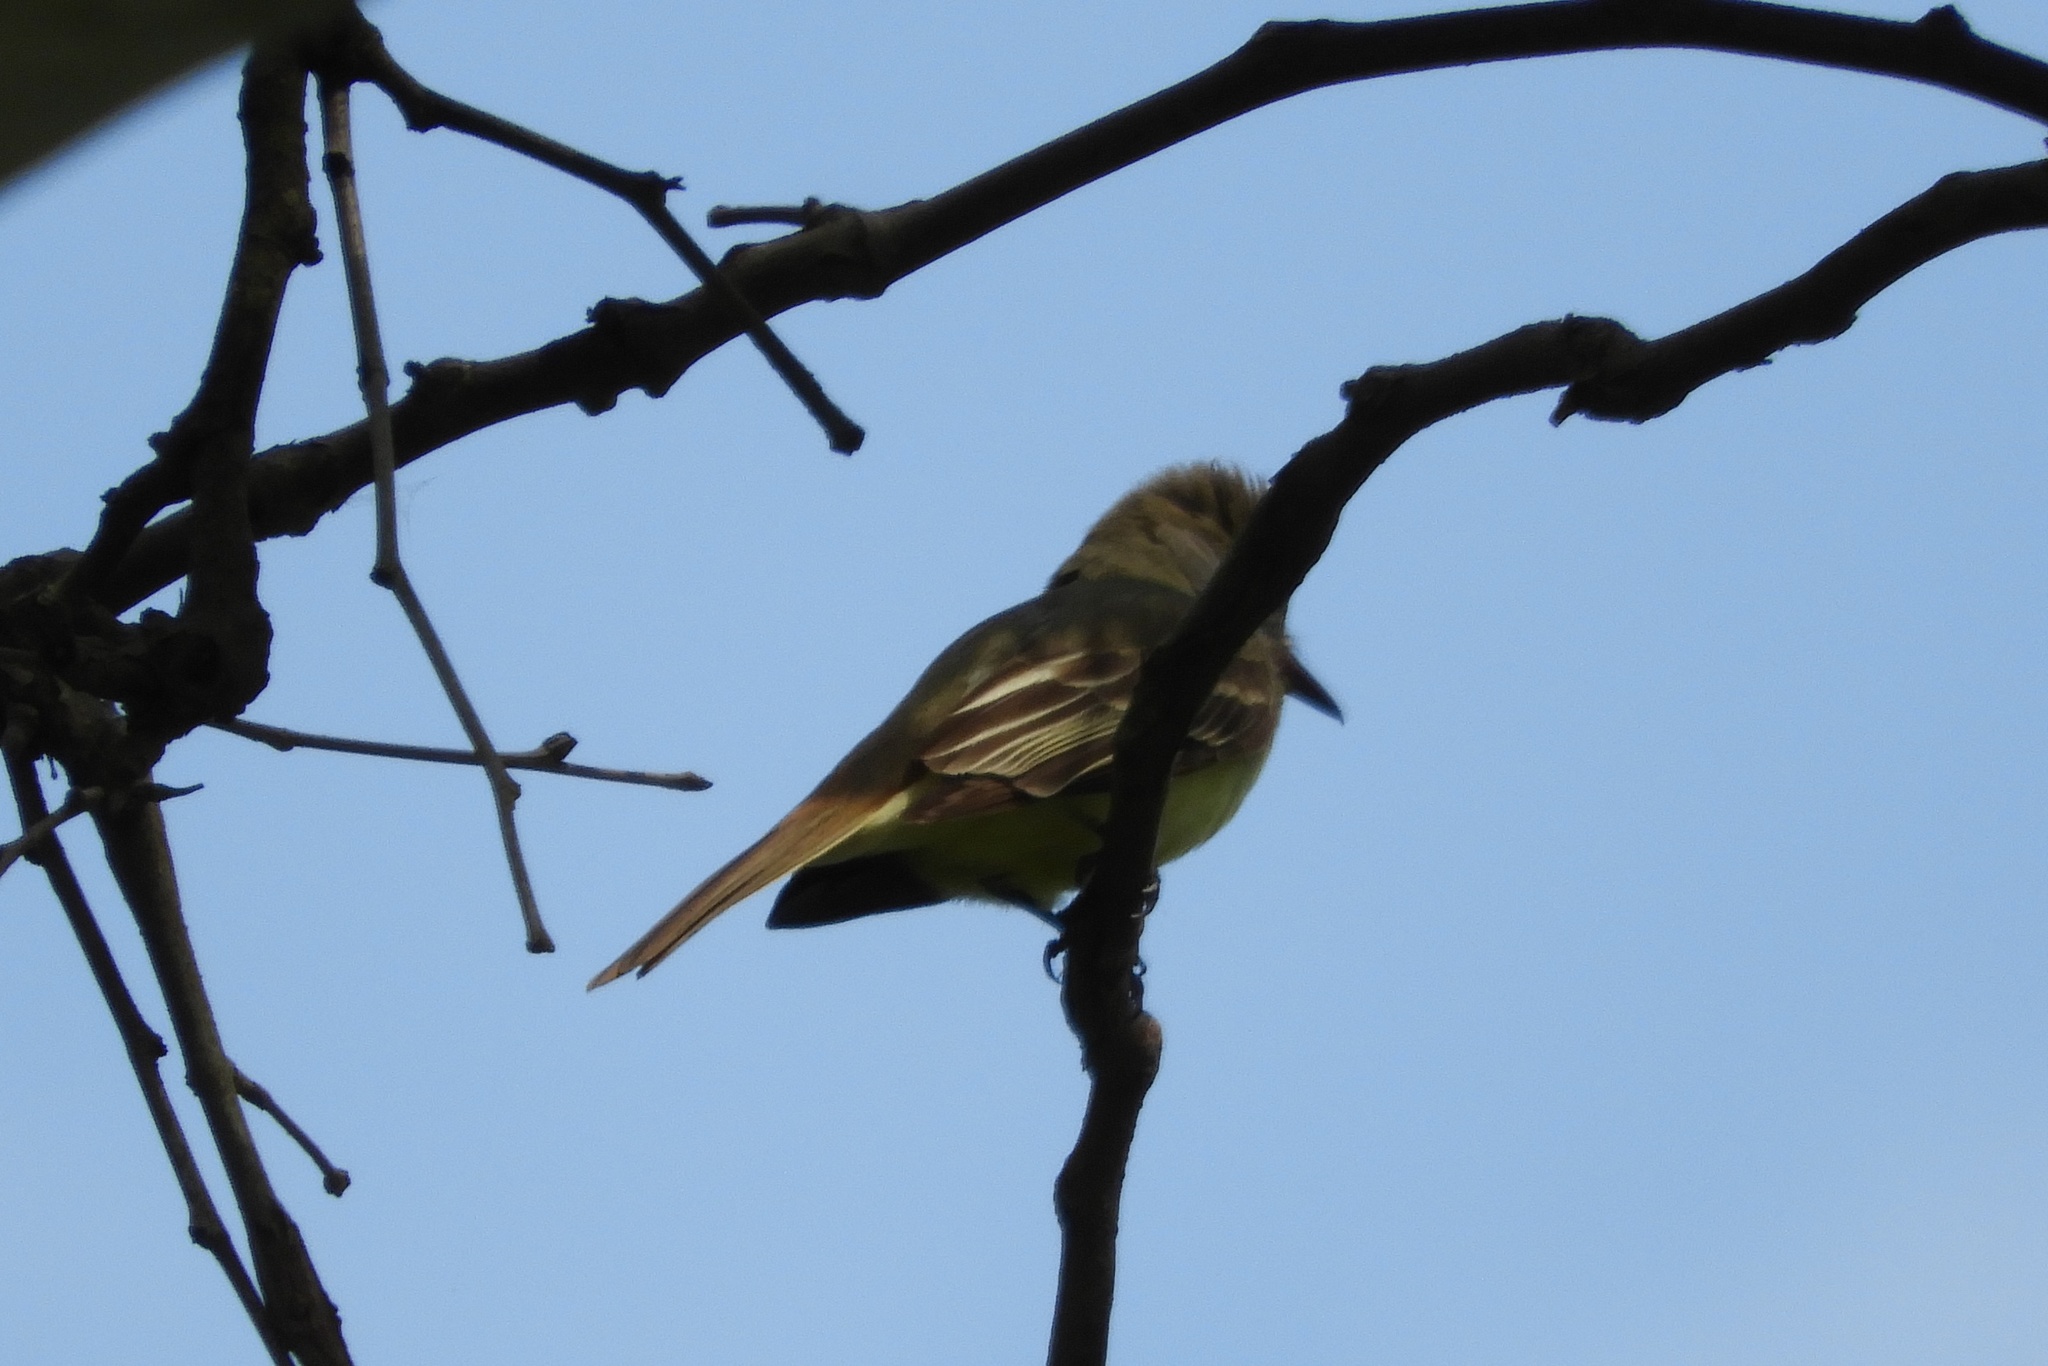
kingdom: Animalia
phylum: Chordata
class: Aves
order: Passeriformes
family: Tyrannidae
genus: Myiarchus
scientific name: Myiarchus crinitus
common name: Great crested flycatcher
